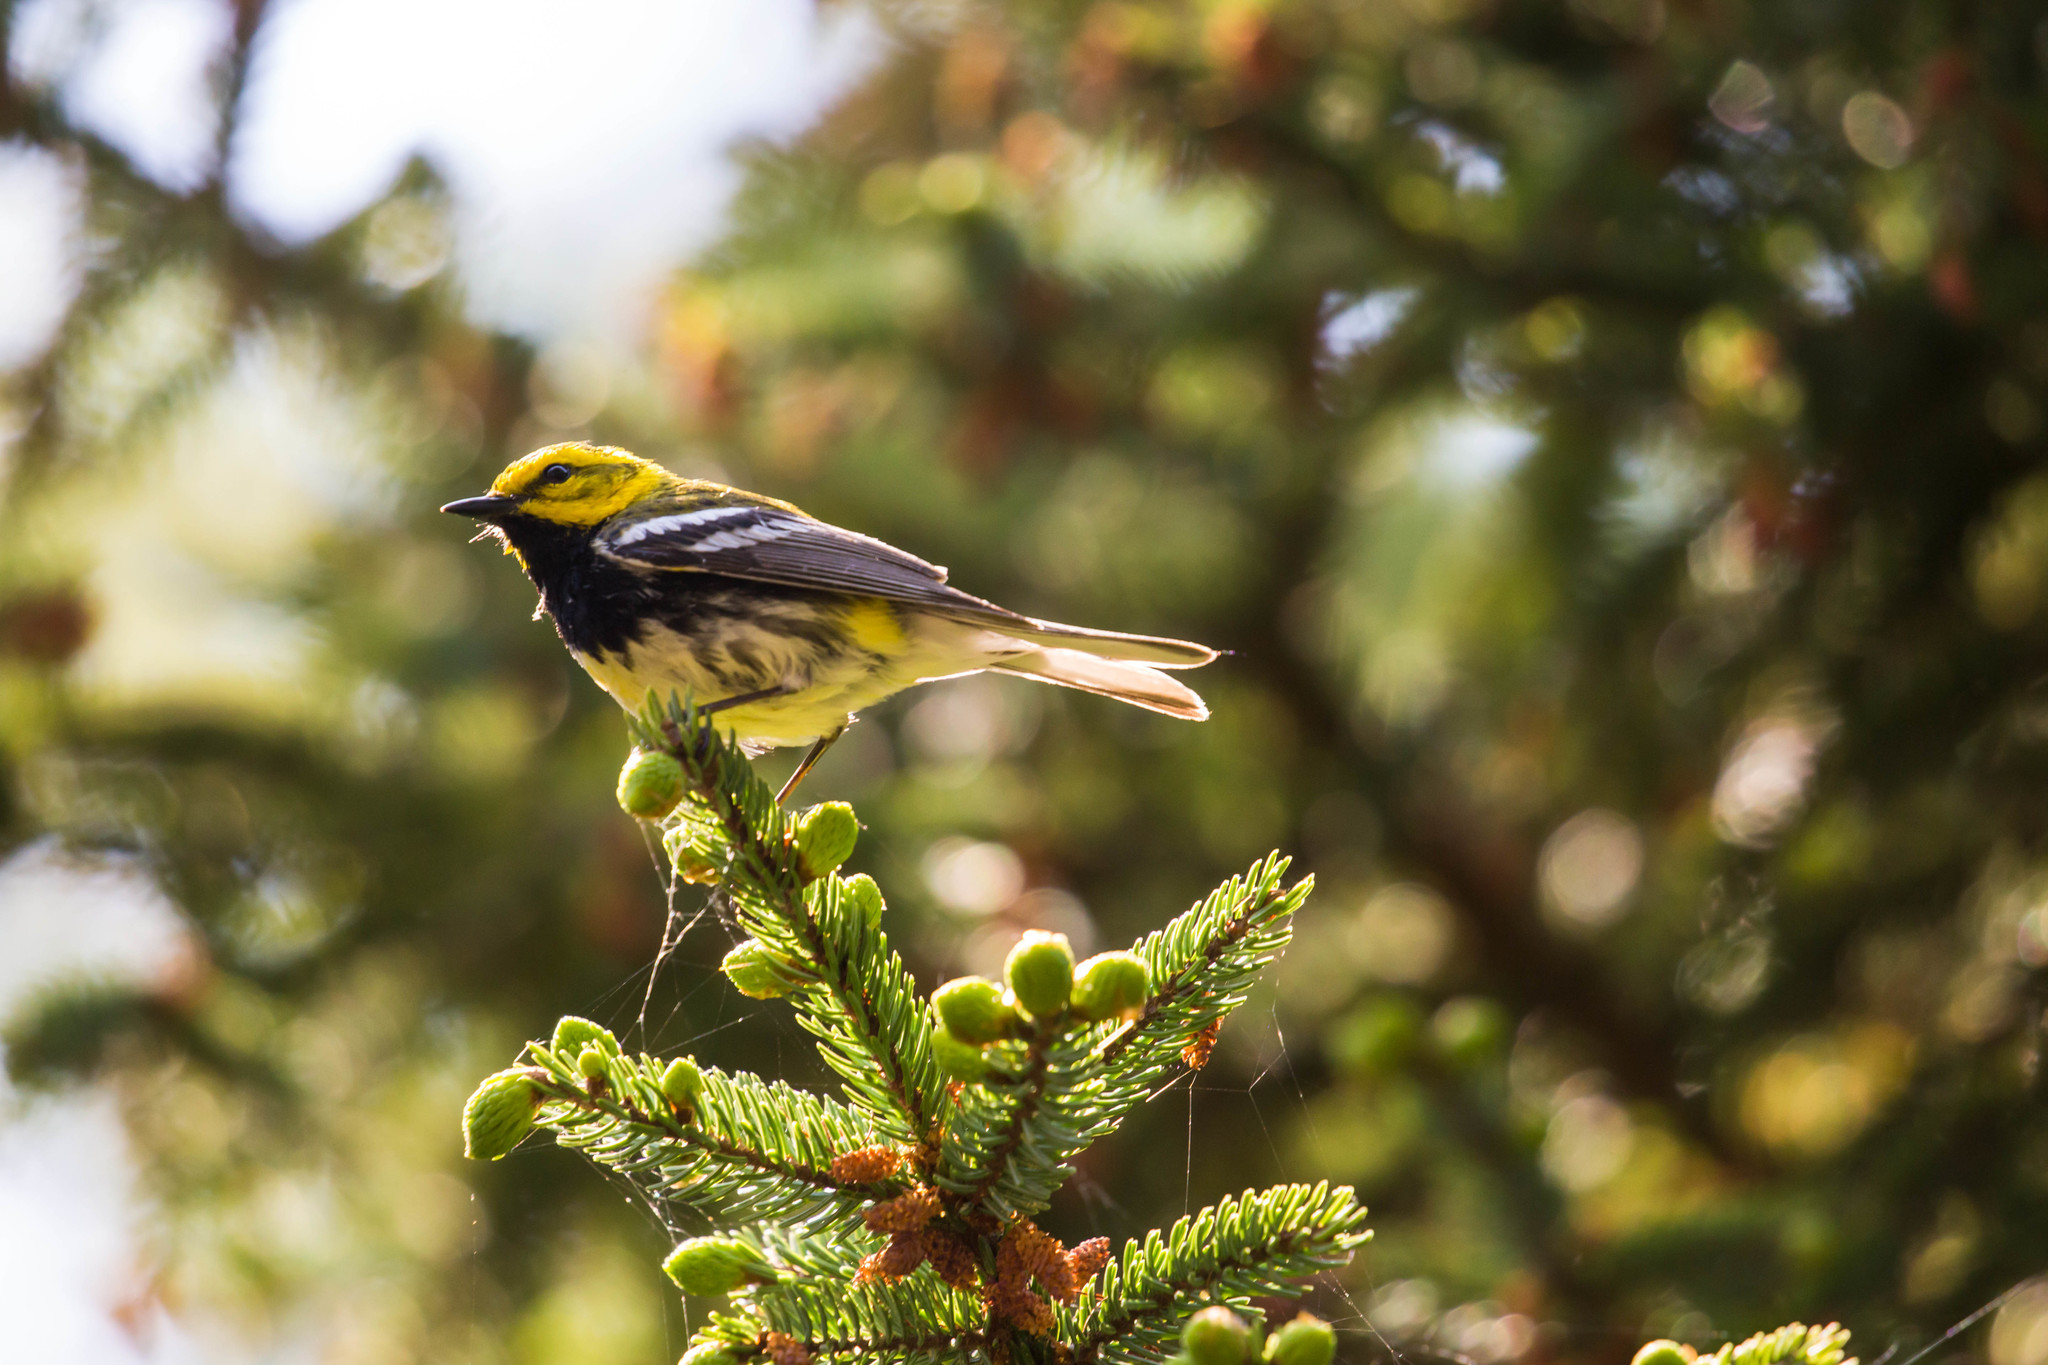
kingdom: Animalia
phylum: Chordata
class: Aves
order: Passeriformes
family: Parulidae
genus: Setophaga
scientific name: Setophaga virens
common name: Black-throated green warbler
